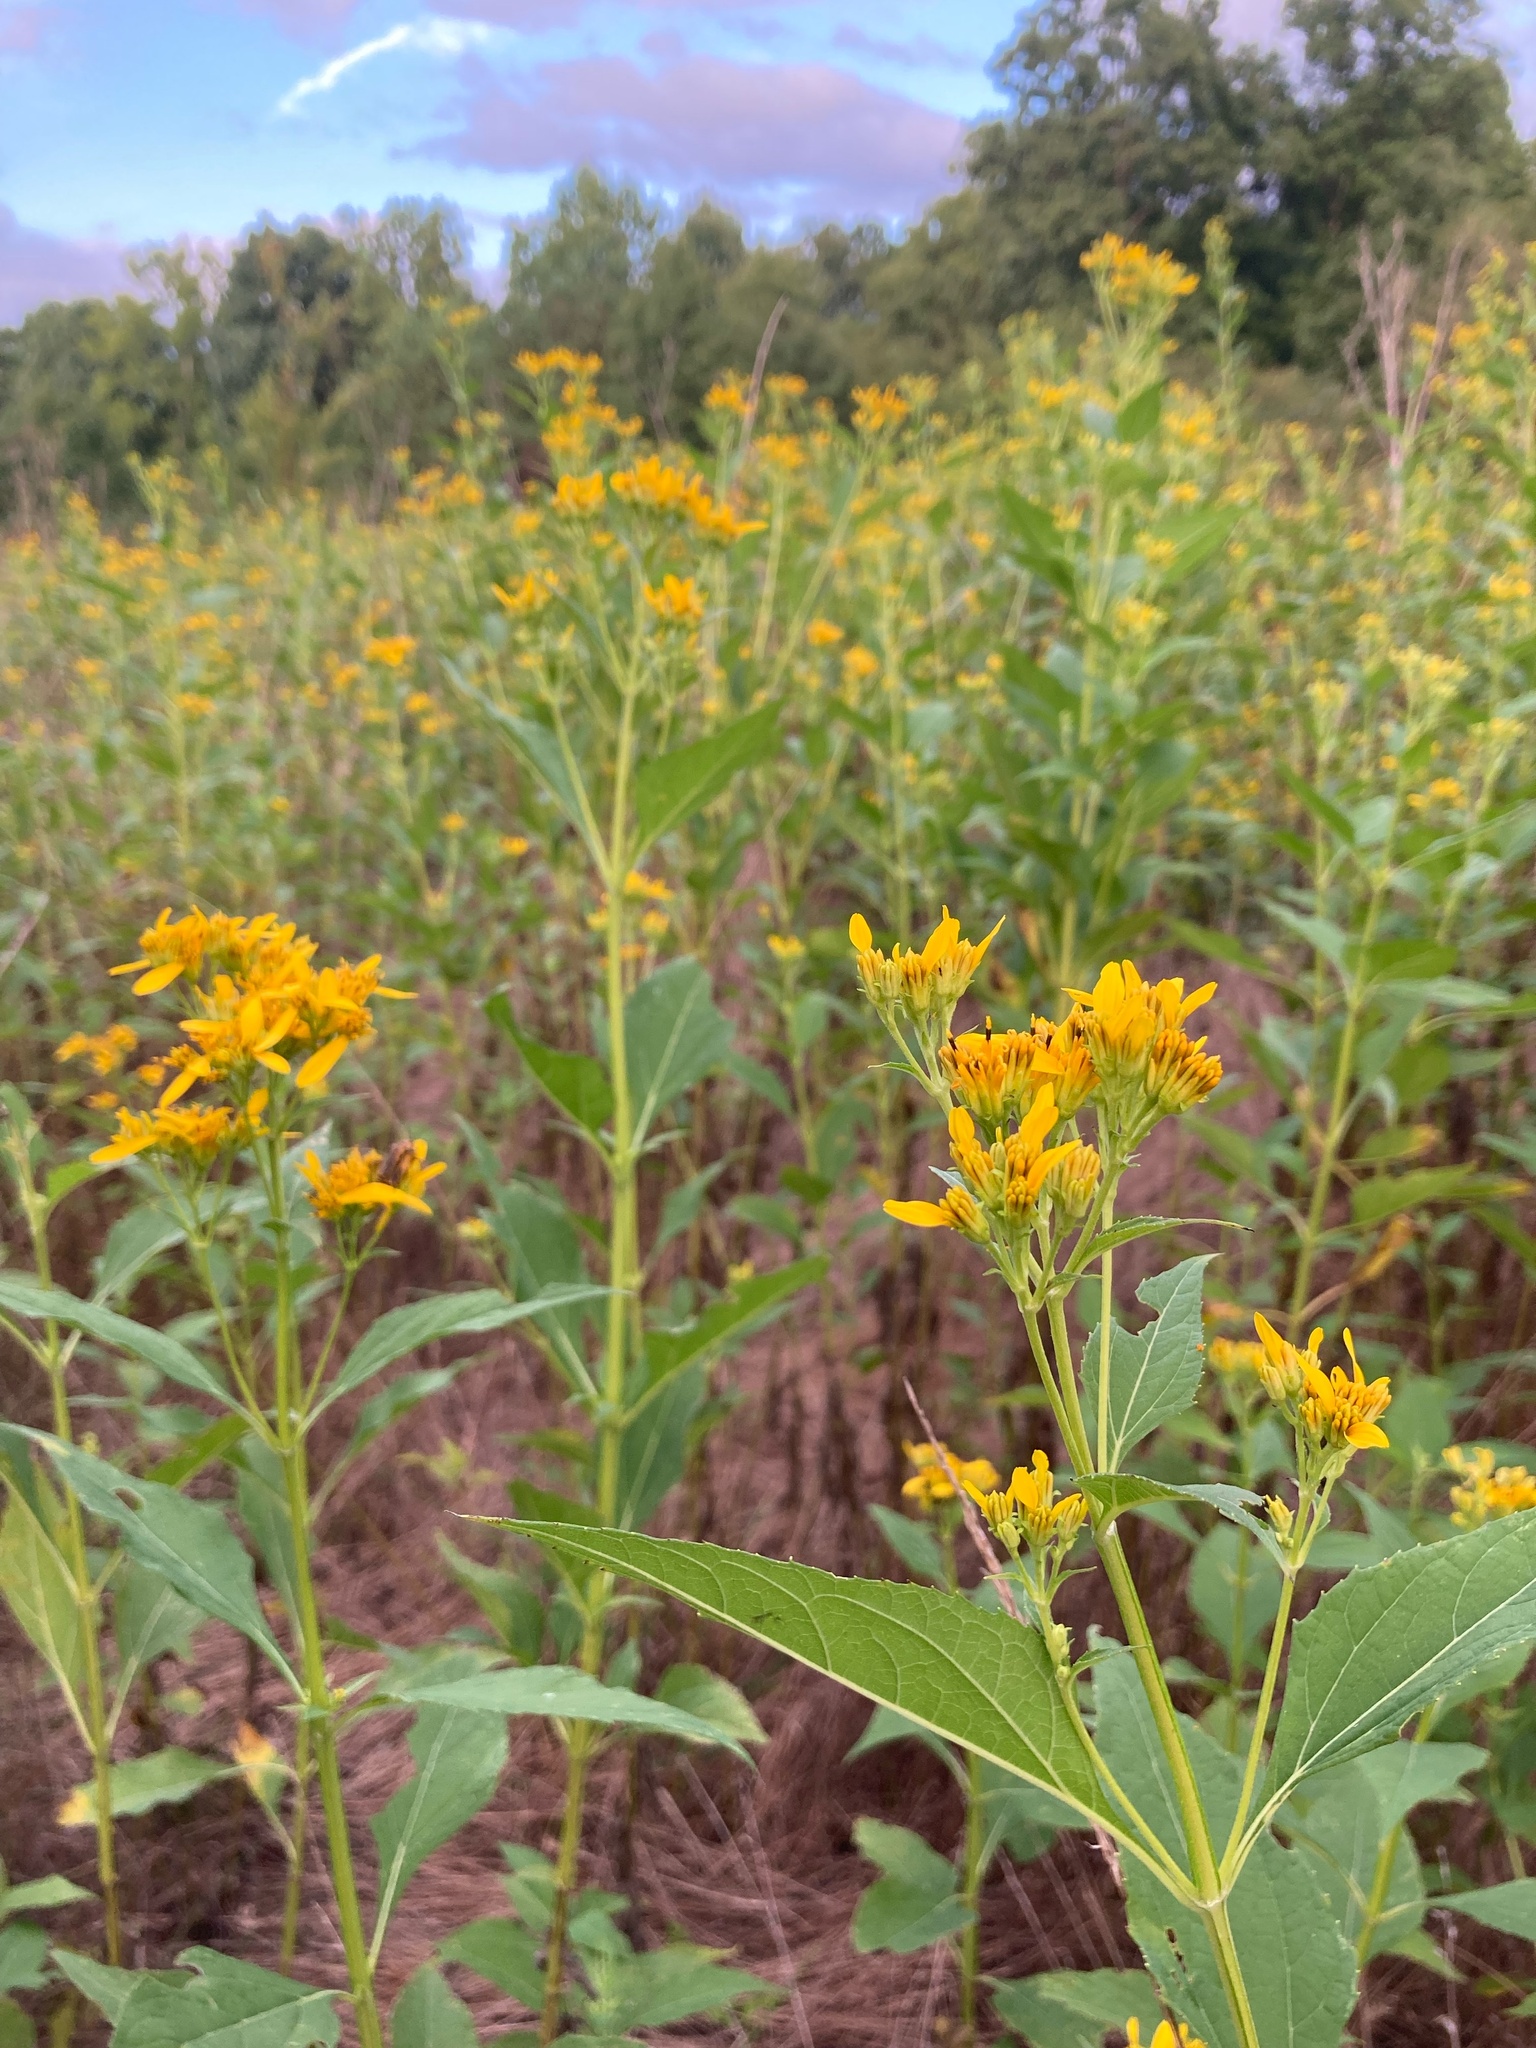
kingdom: Plantae
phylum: Tracheophyta
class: Magnoliopsida
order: Asterales
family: Asteraceae
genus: Verbesina
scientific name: Verbesina occidentalis
